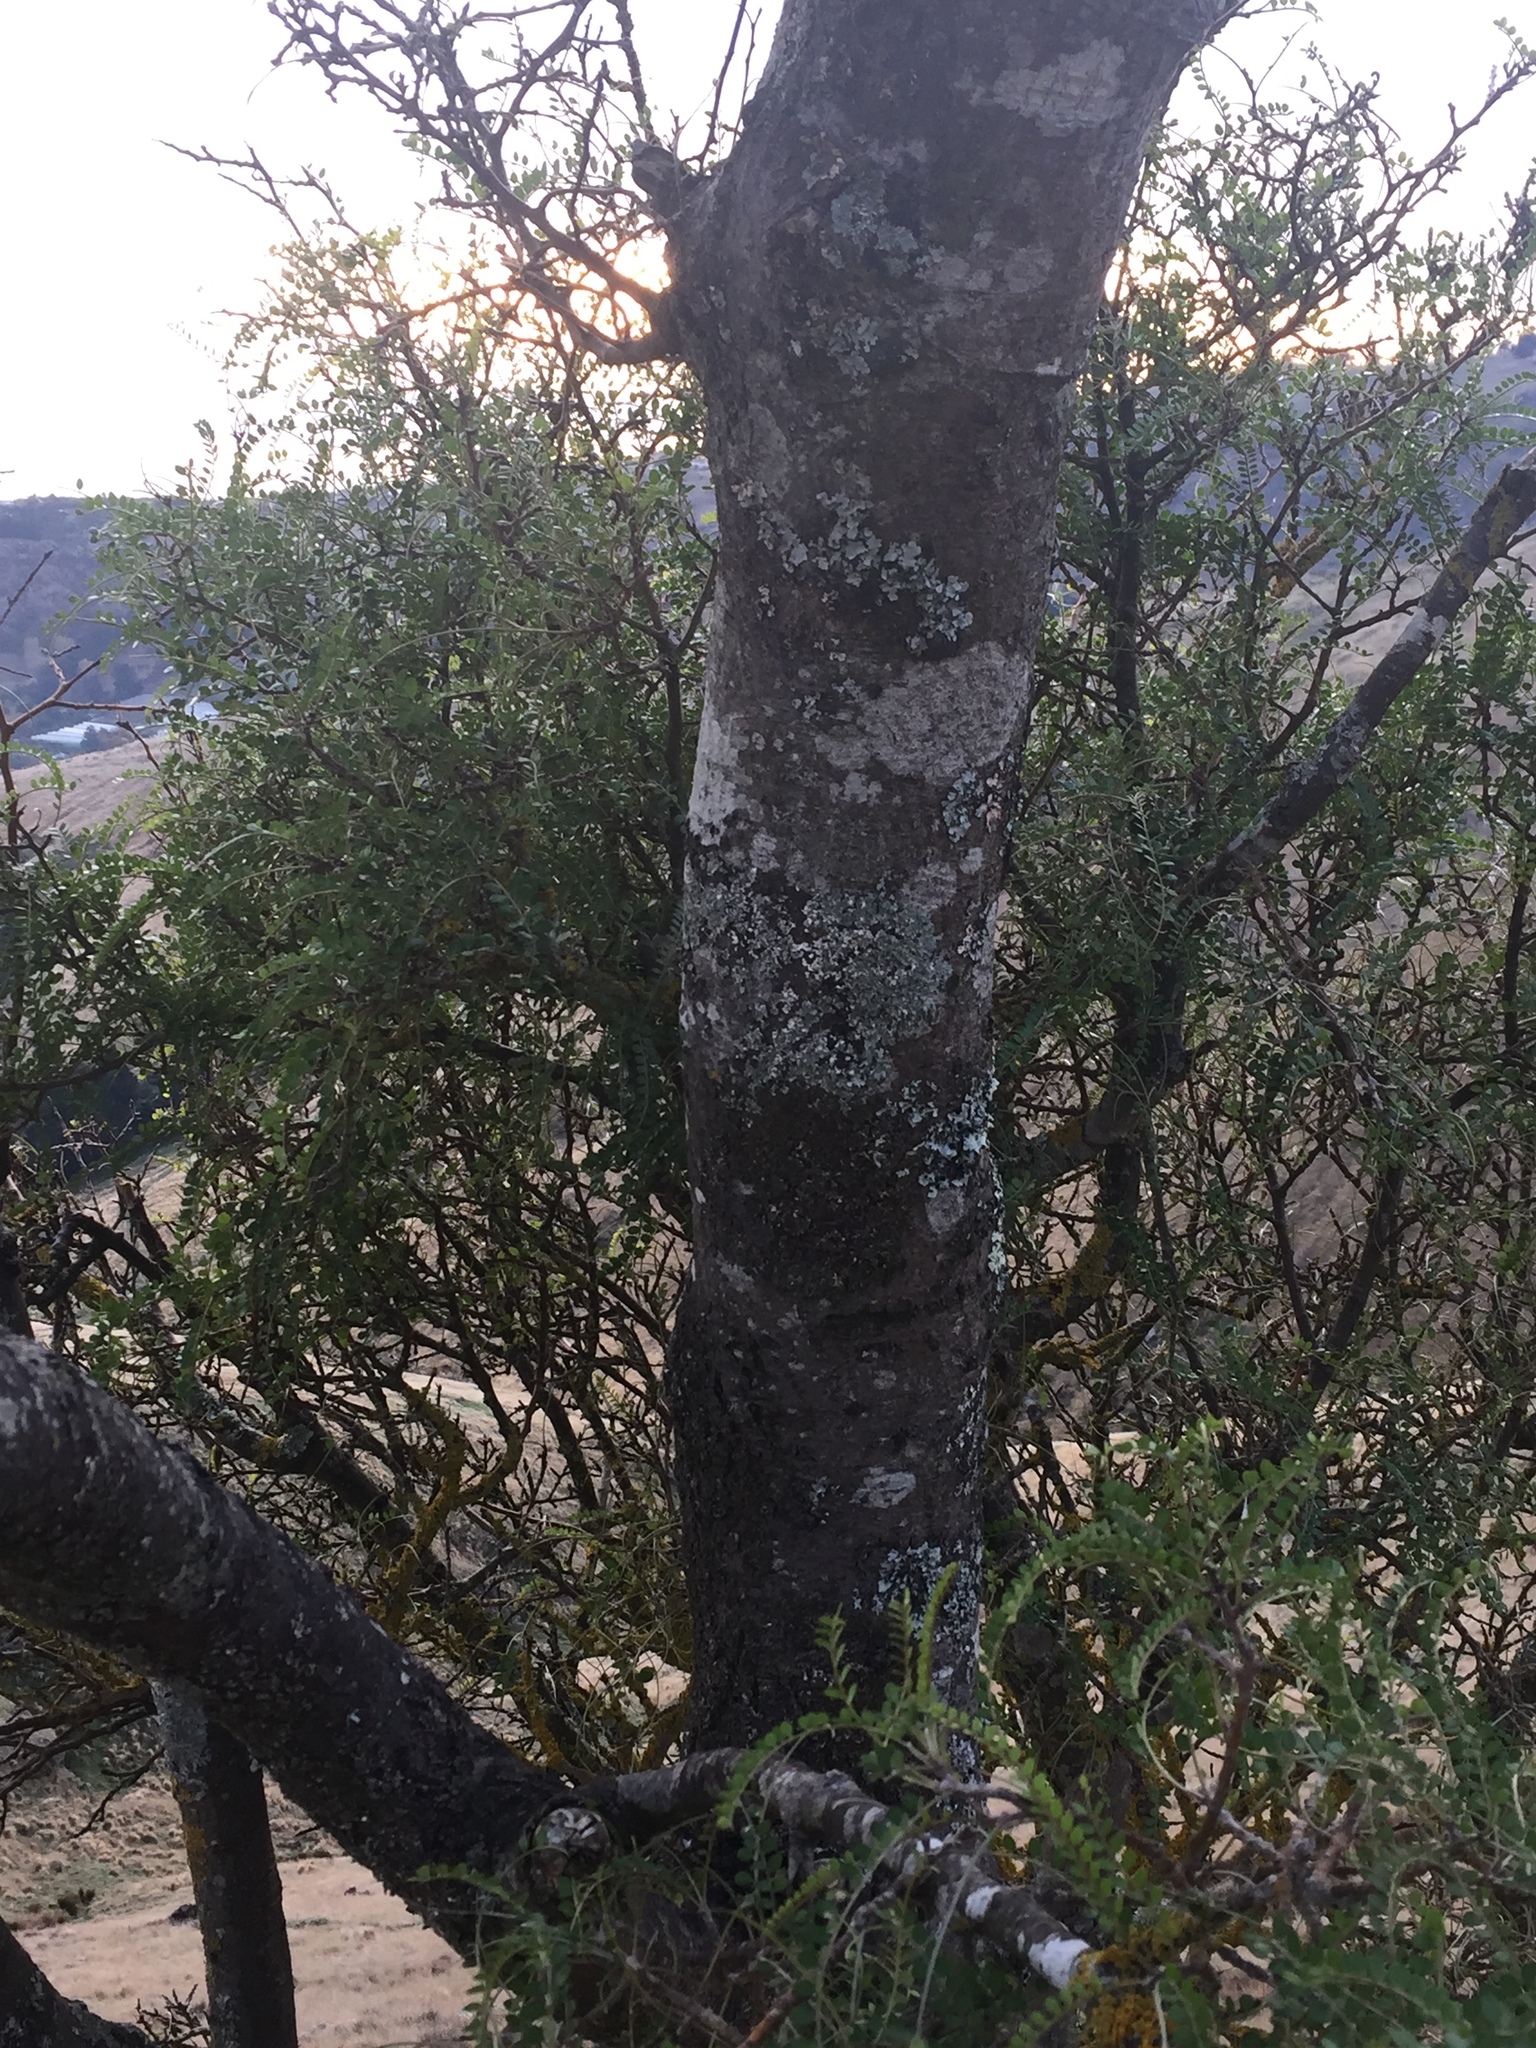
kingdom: Plantae
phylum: Tracheophyta
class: Magnoliopsida
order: Fabales
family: Fabaceae
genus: Sophora
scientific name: Sophora microphylla
